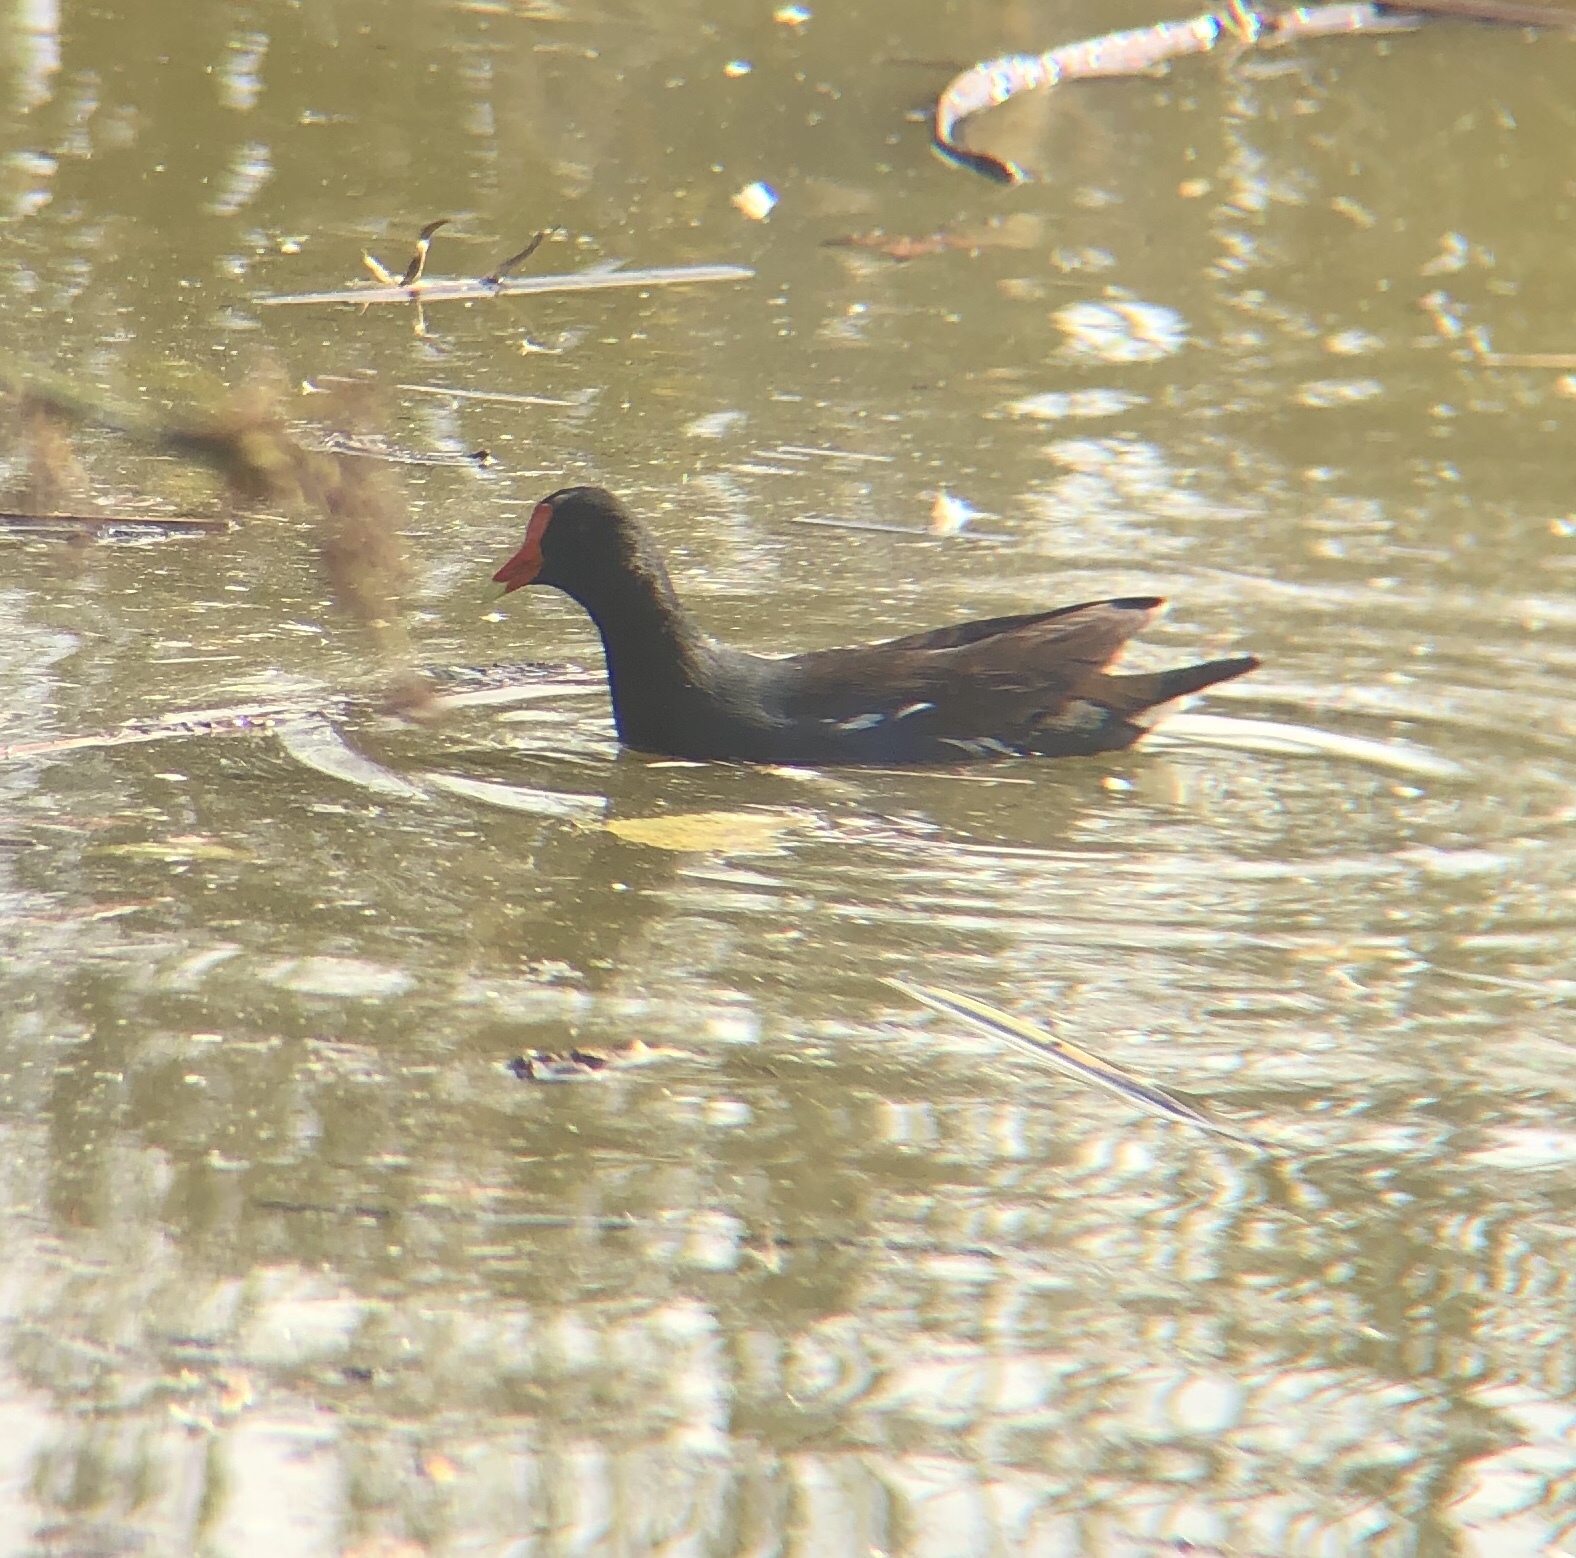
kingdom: Animalia
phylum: Chordata
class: Aves
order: Gruiformes
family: Rallidae
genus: Gallinula
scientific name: Gallinula chloropus
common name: Common moorhen
